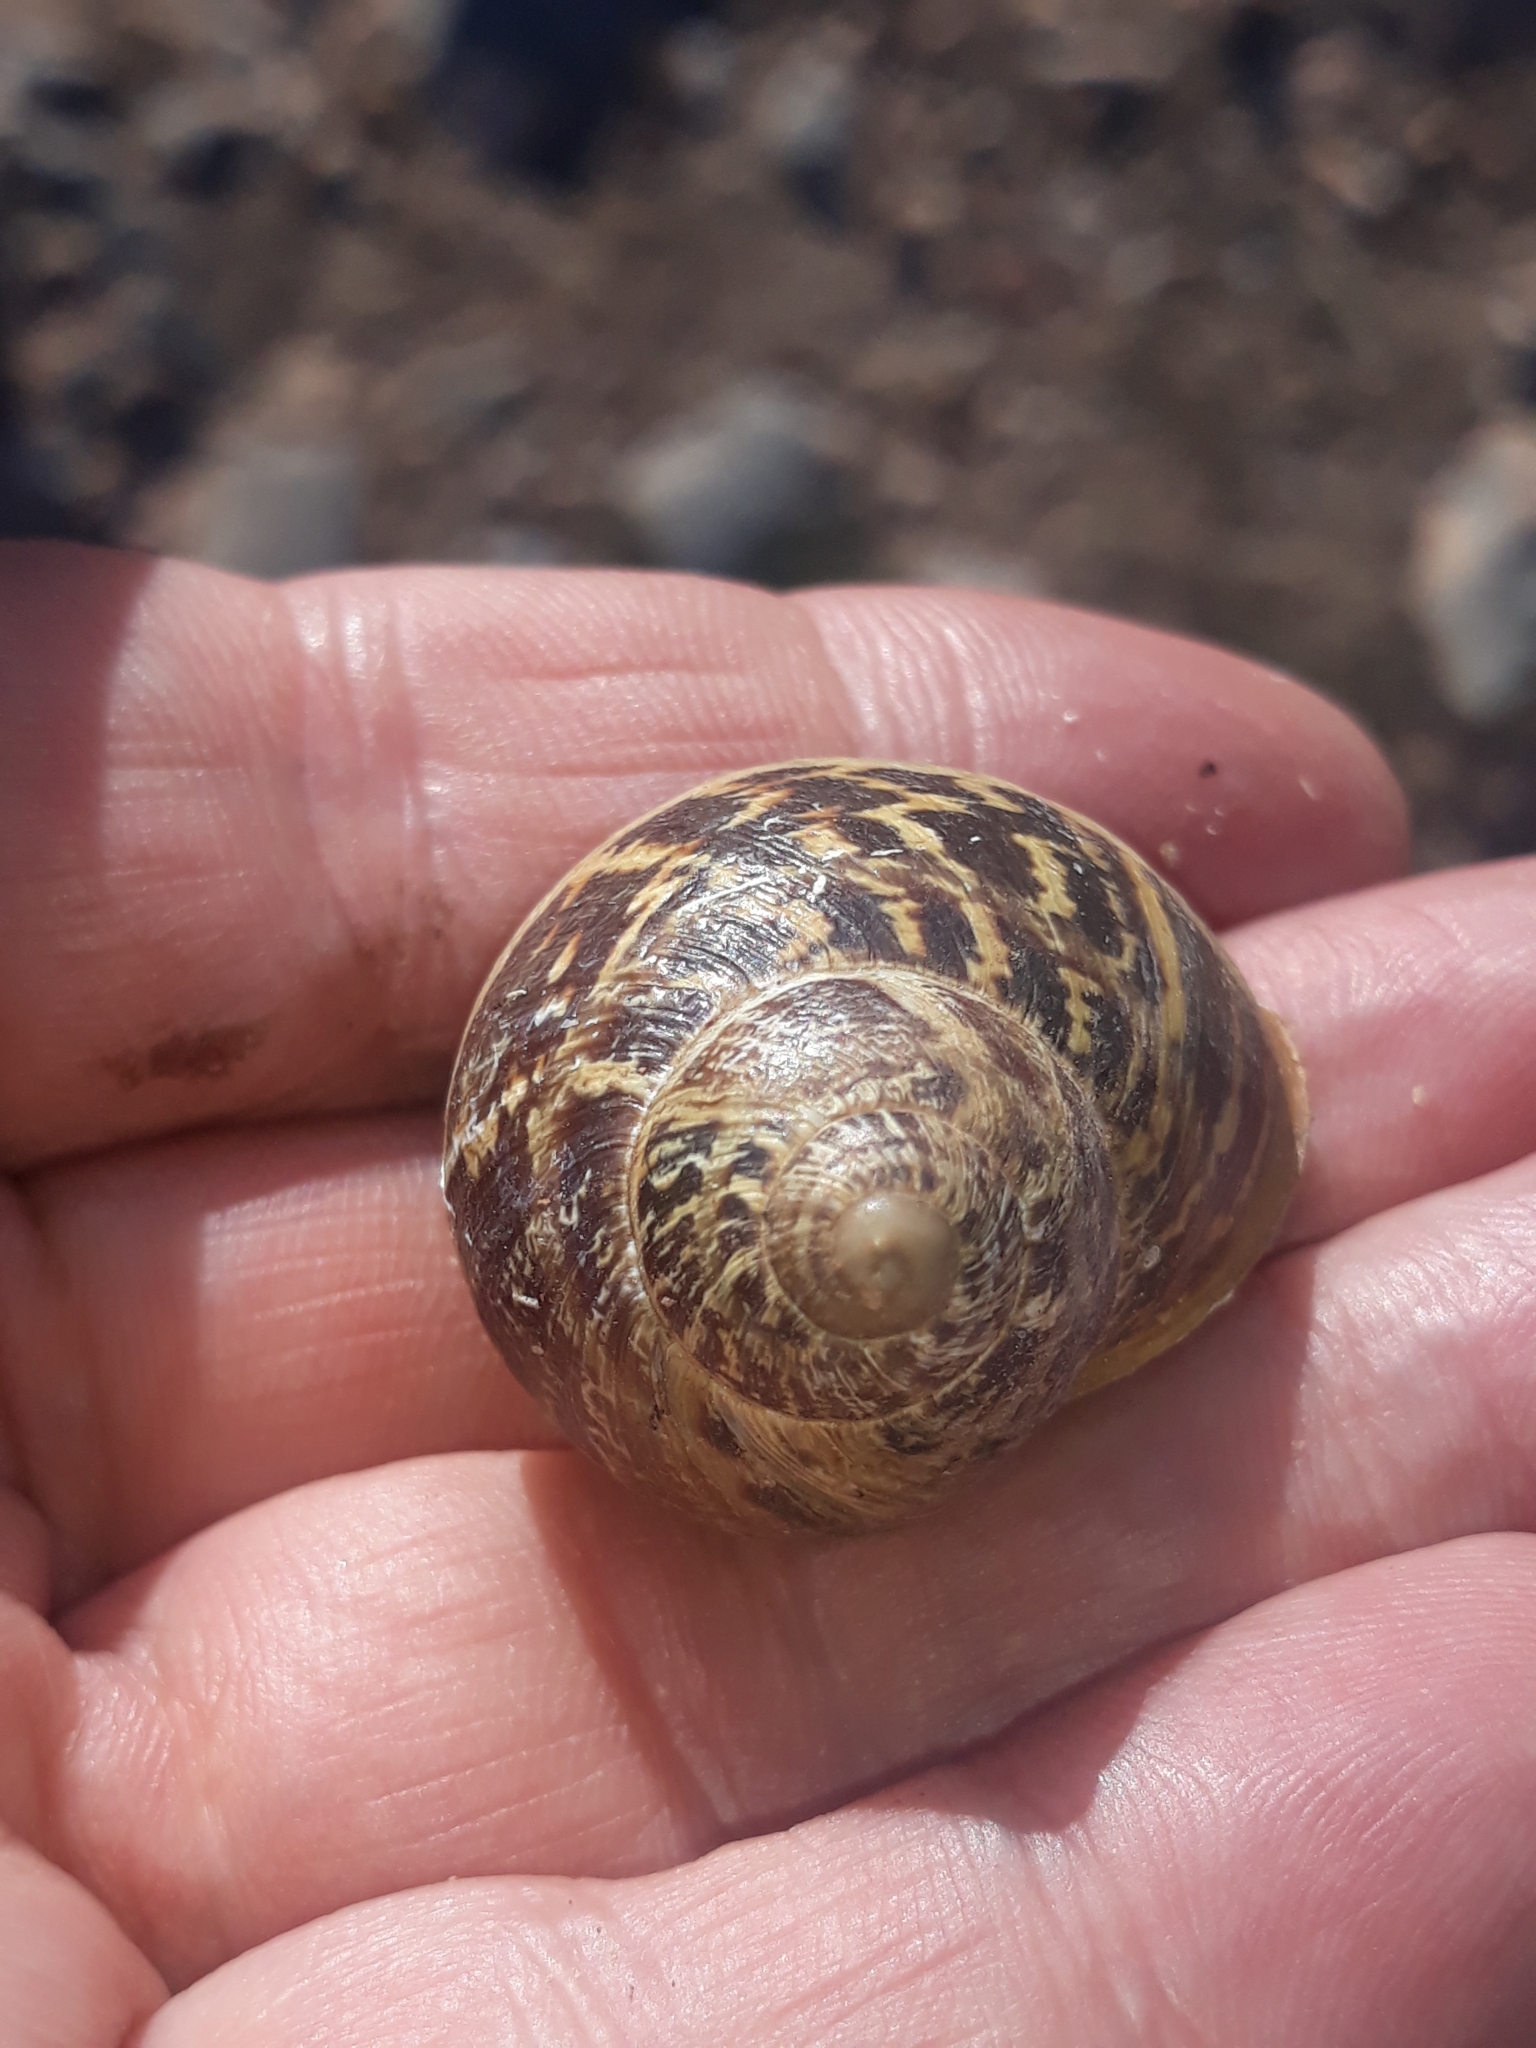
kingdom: Animalia
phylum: Mollusca
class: Gastropoda
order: Stylommatophora
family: Helicidae
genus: Cornu
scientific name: Cornu aspersum
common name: Brown garden snail
